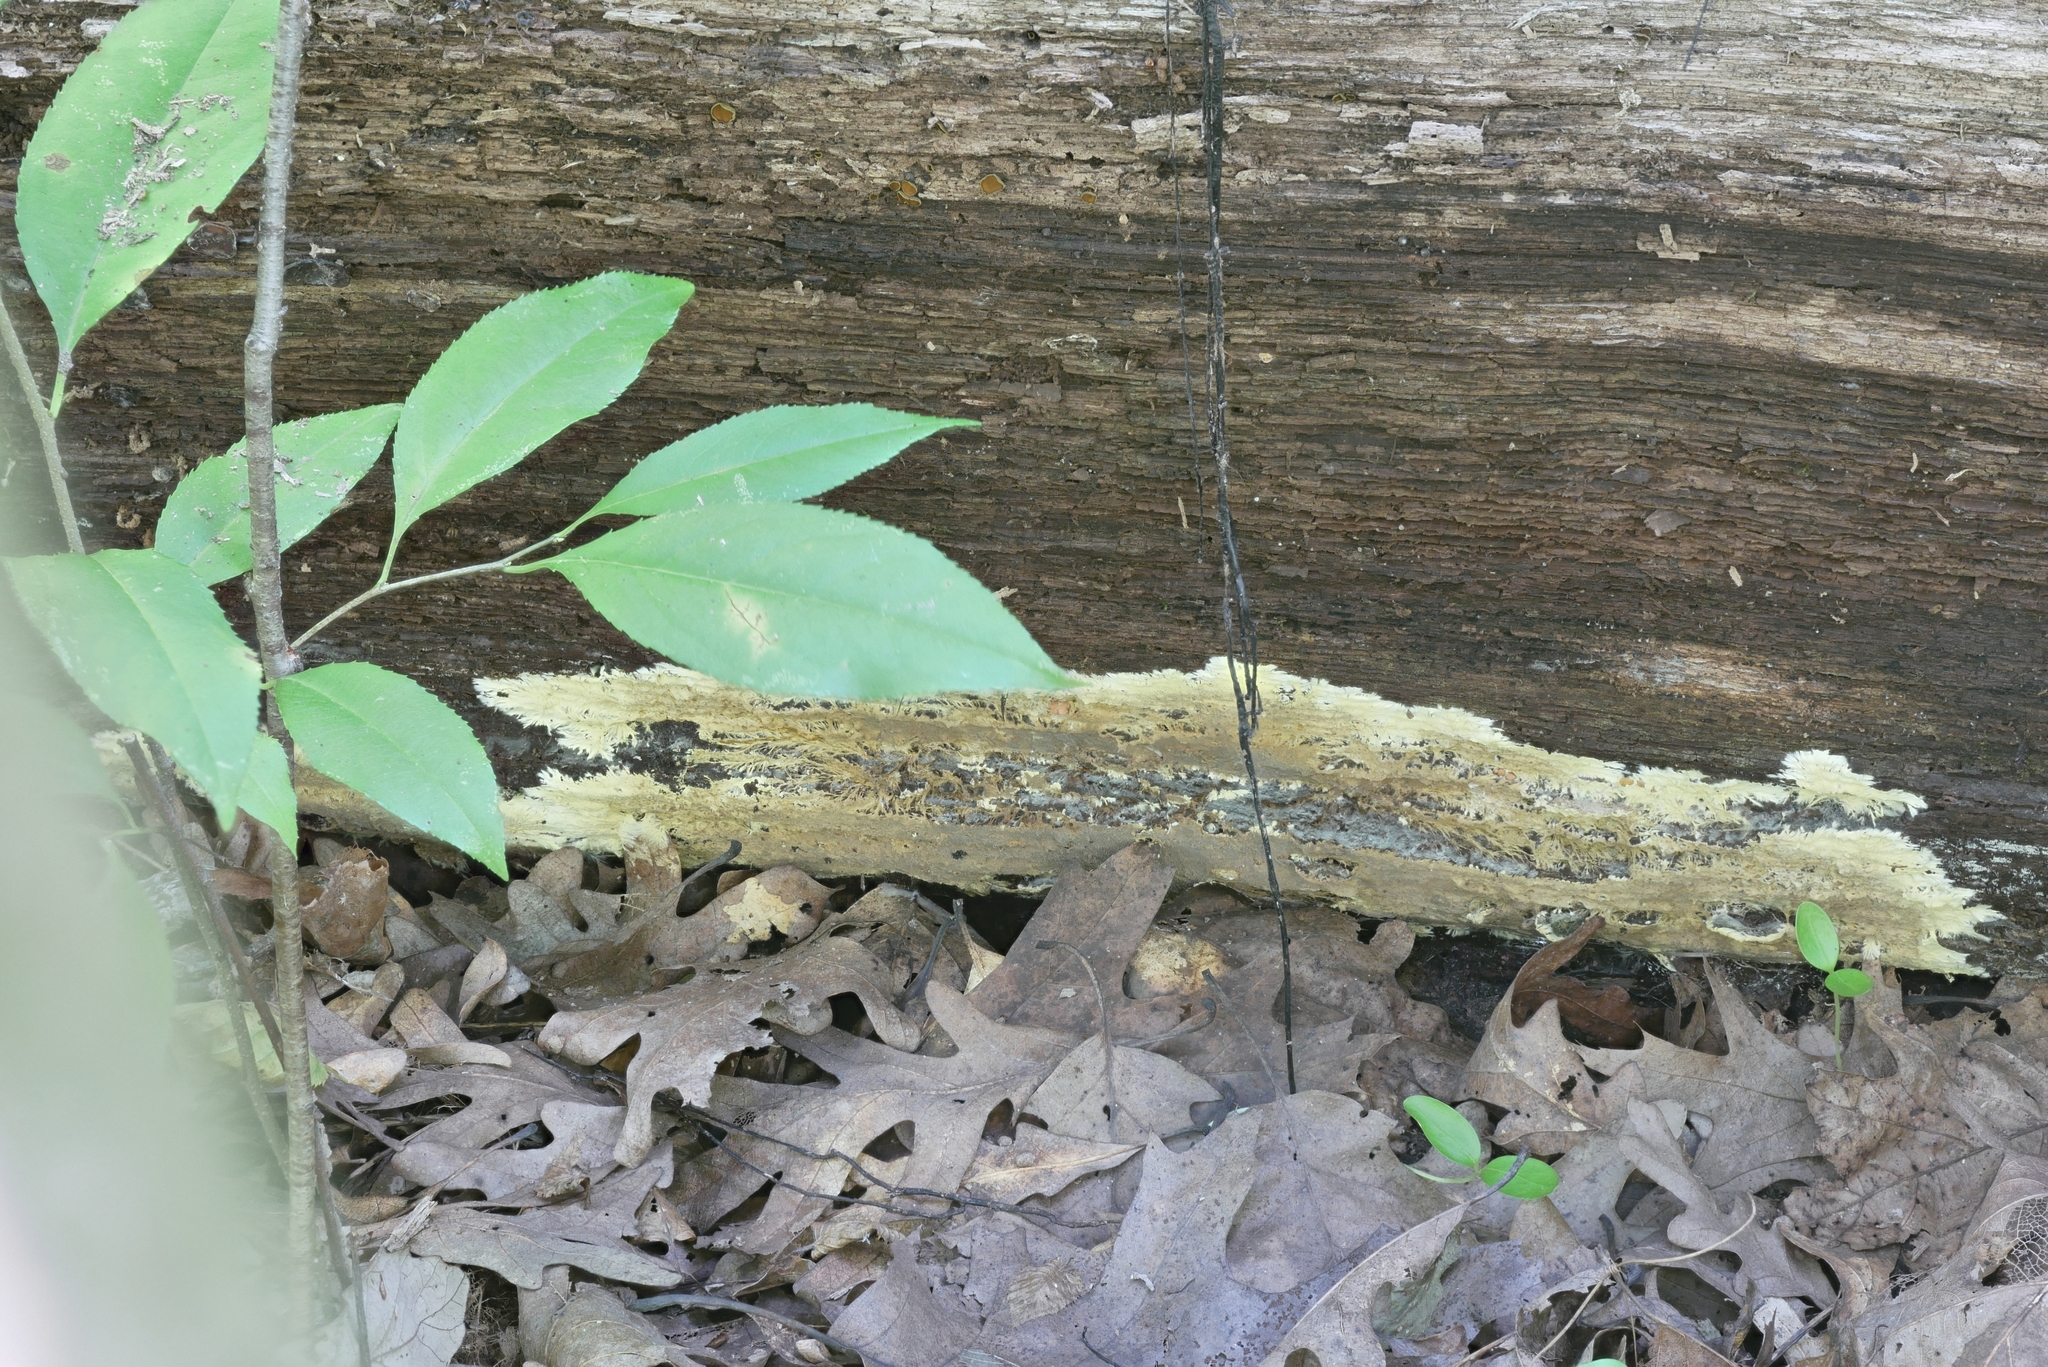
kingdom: Fungi
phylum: Basidiomycota
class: Agaricomycetes
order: Russulales
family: Xenasmataceae
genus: Xenasmatella
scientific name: Xenasmatella vaga
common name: Yellow cobweb
